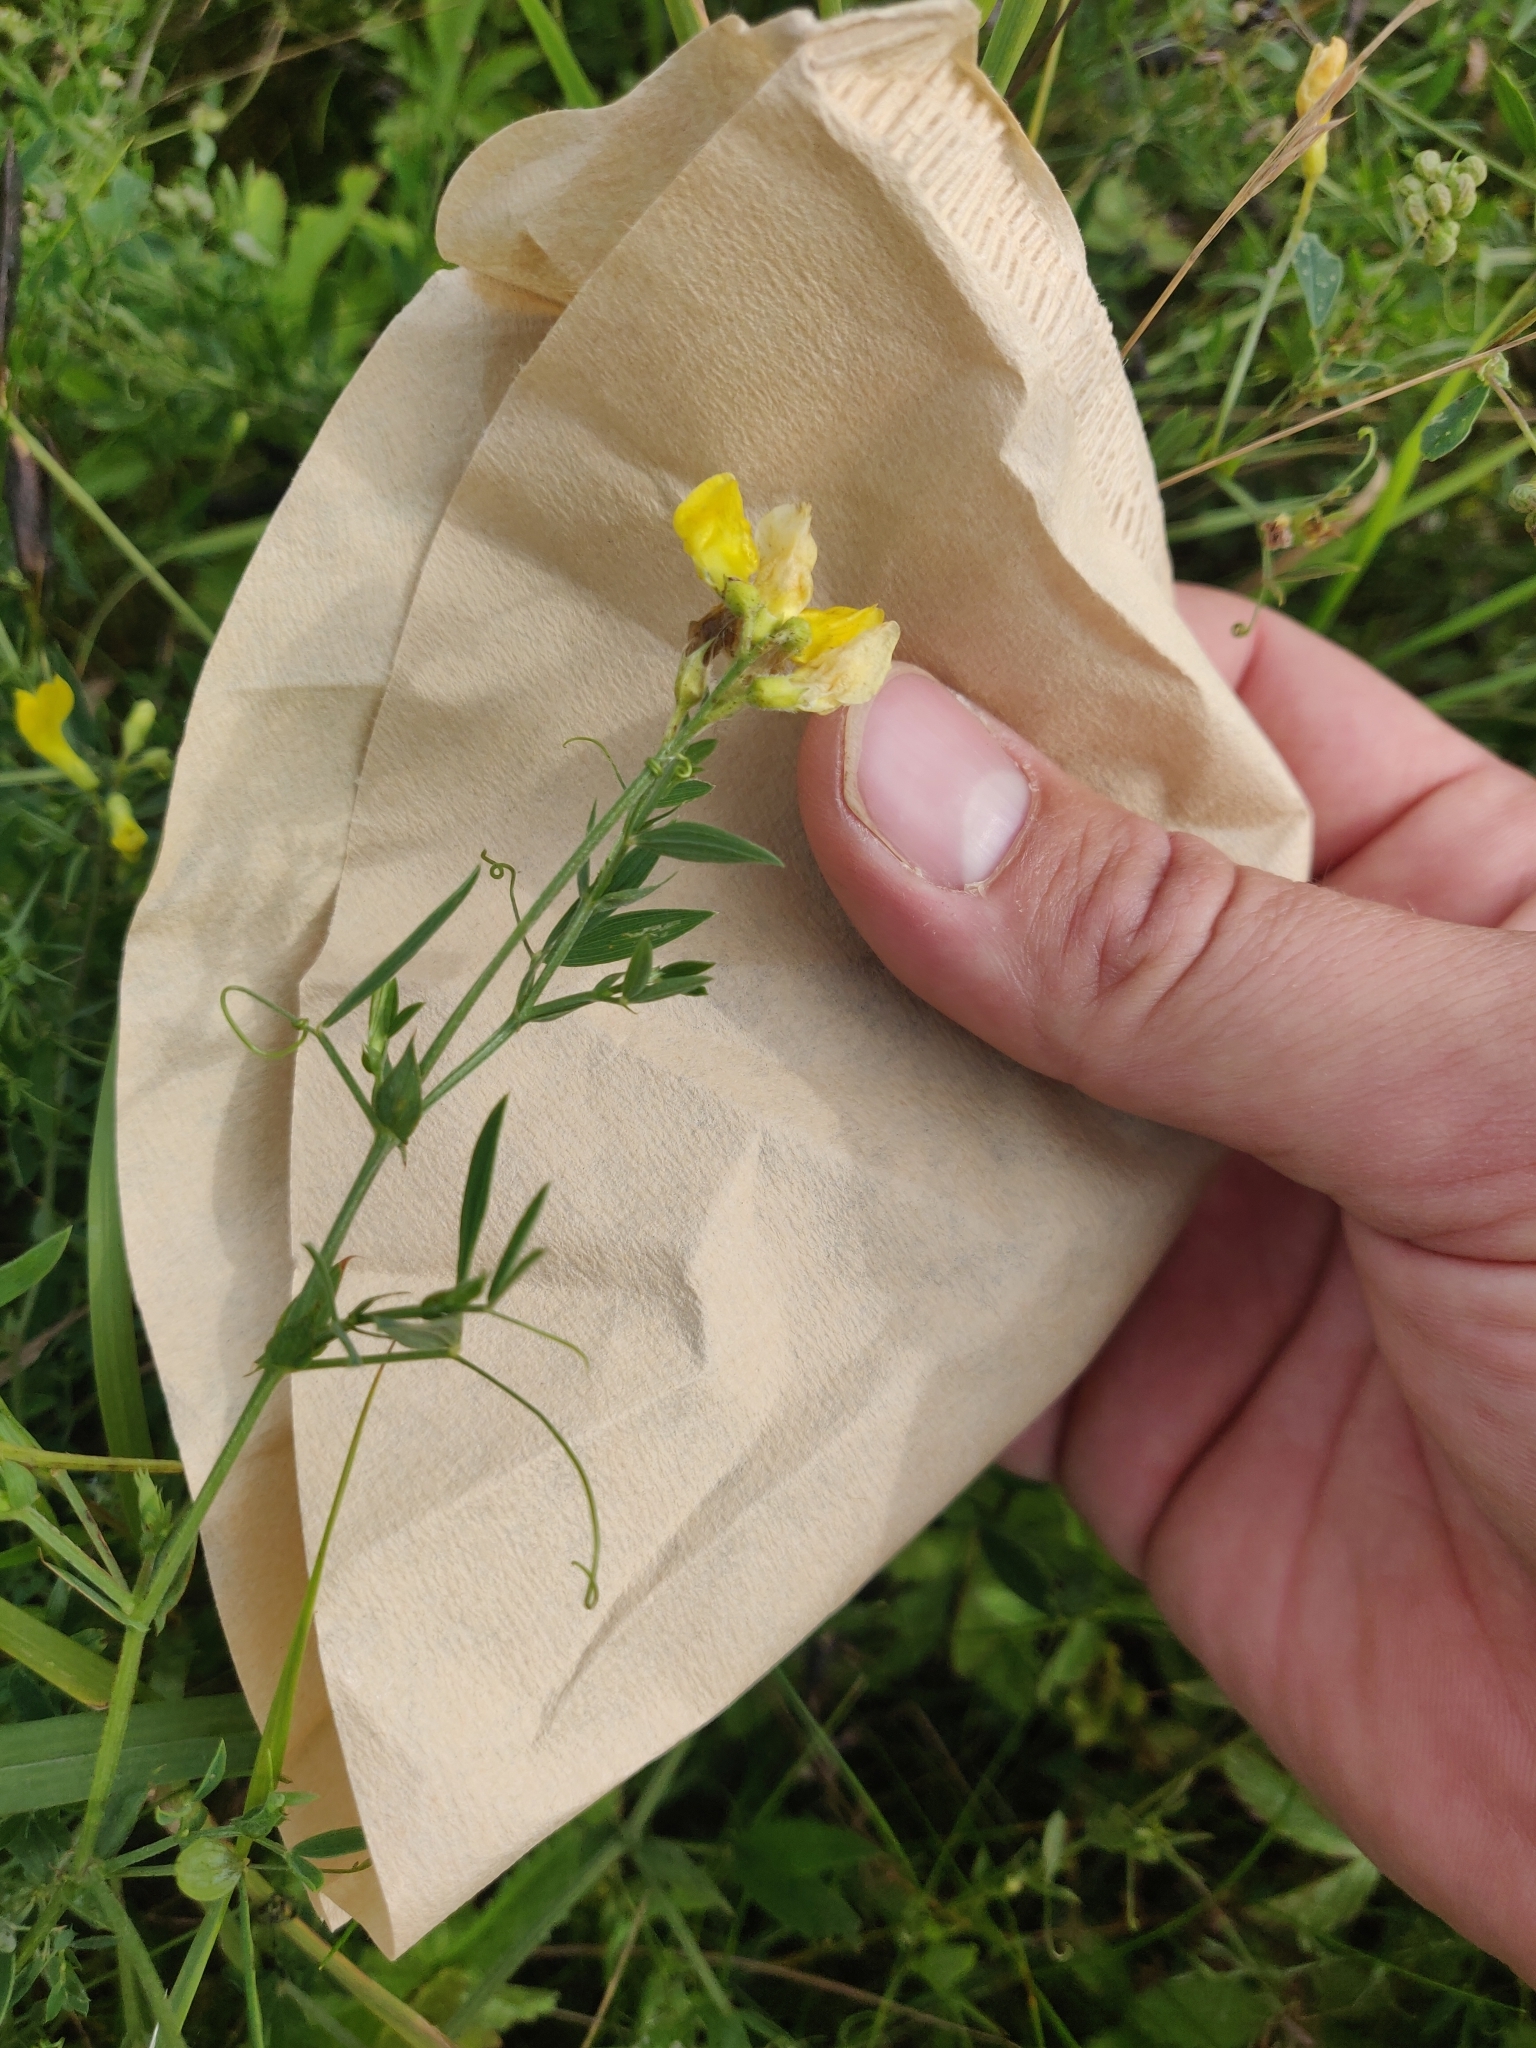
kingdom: Plantae
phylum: Tracheophyta
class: Magnoliopsida
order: Fabales
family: Fabaceae
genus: Lathyrus
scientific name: Lathyrus pratensis
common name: Meadow vetchling
